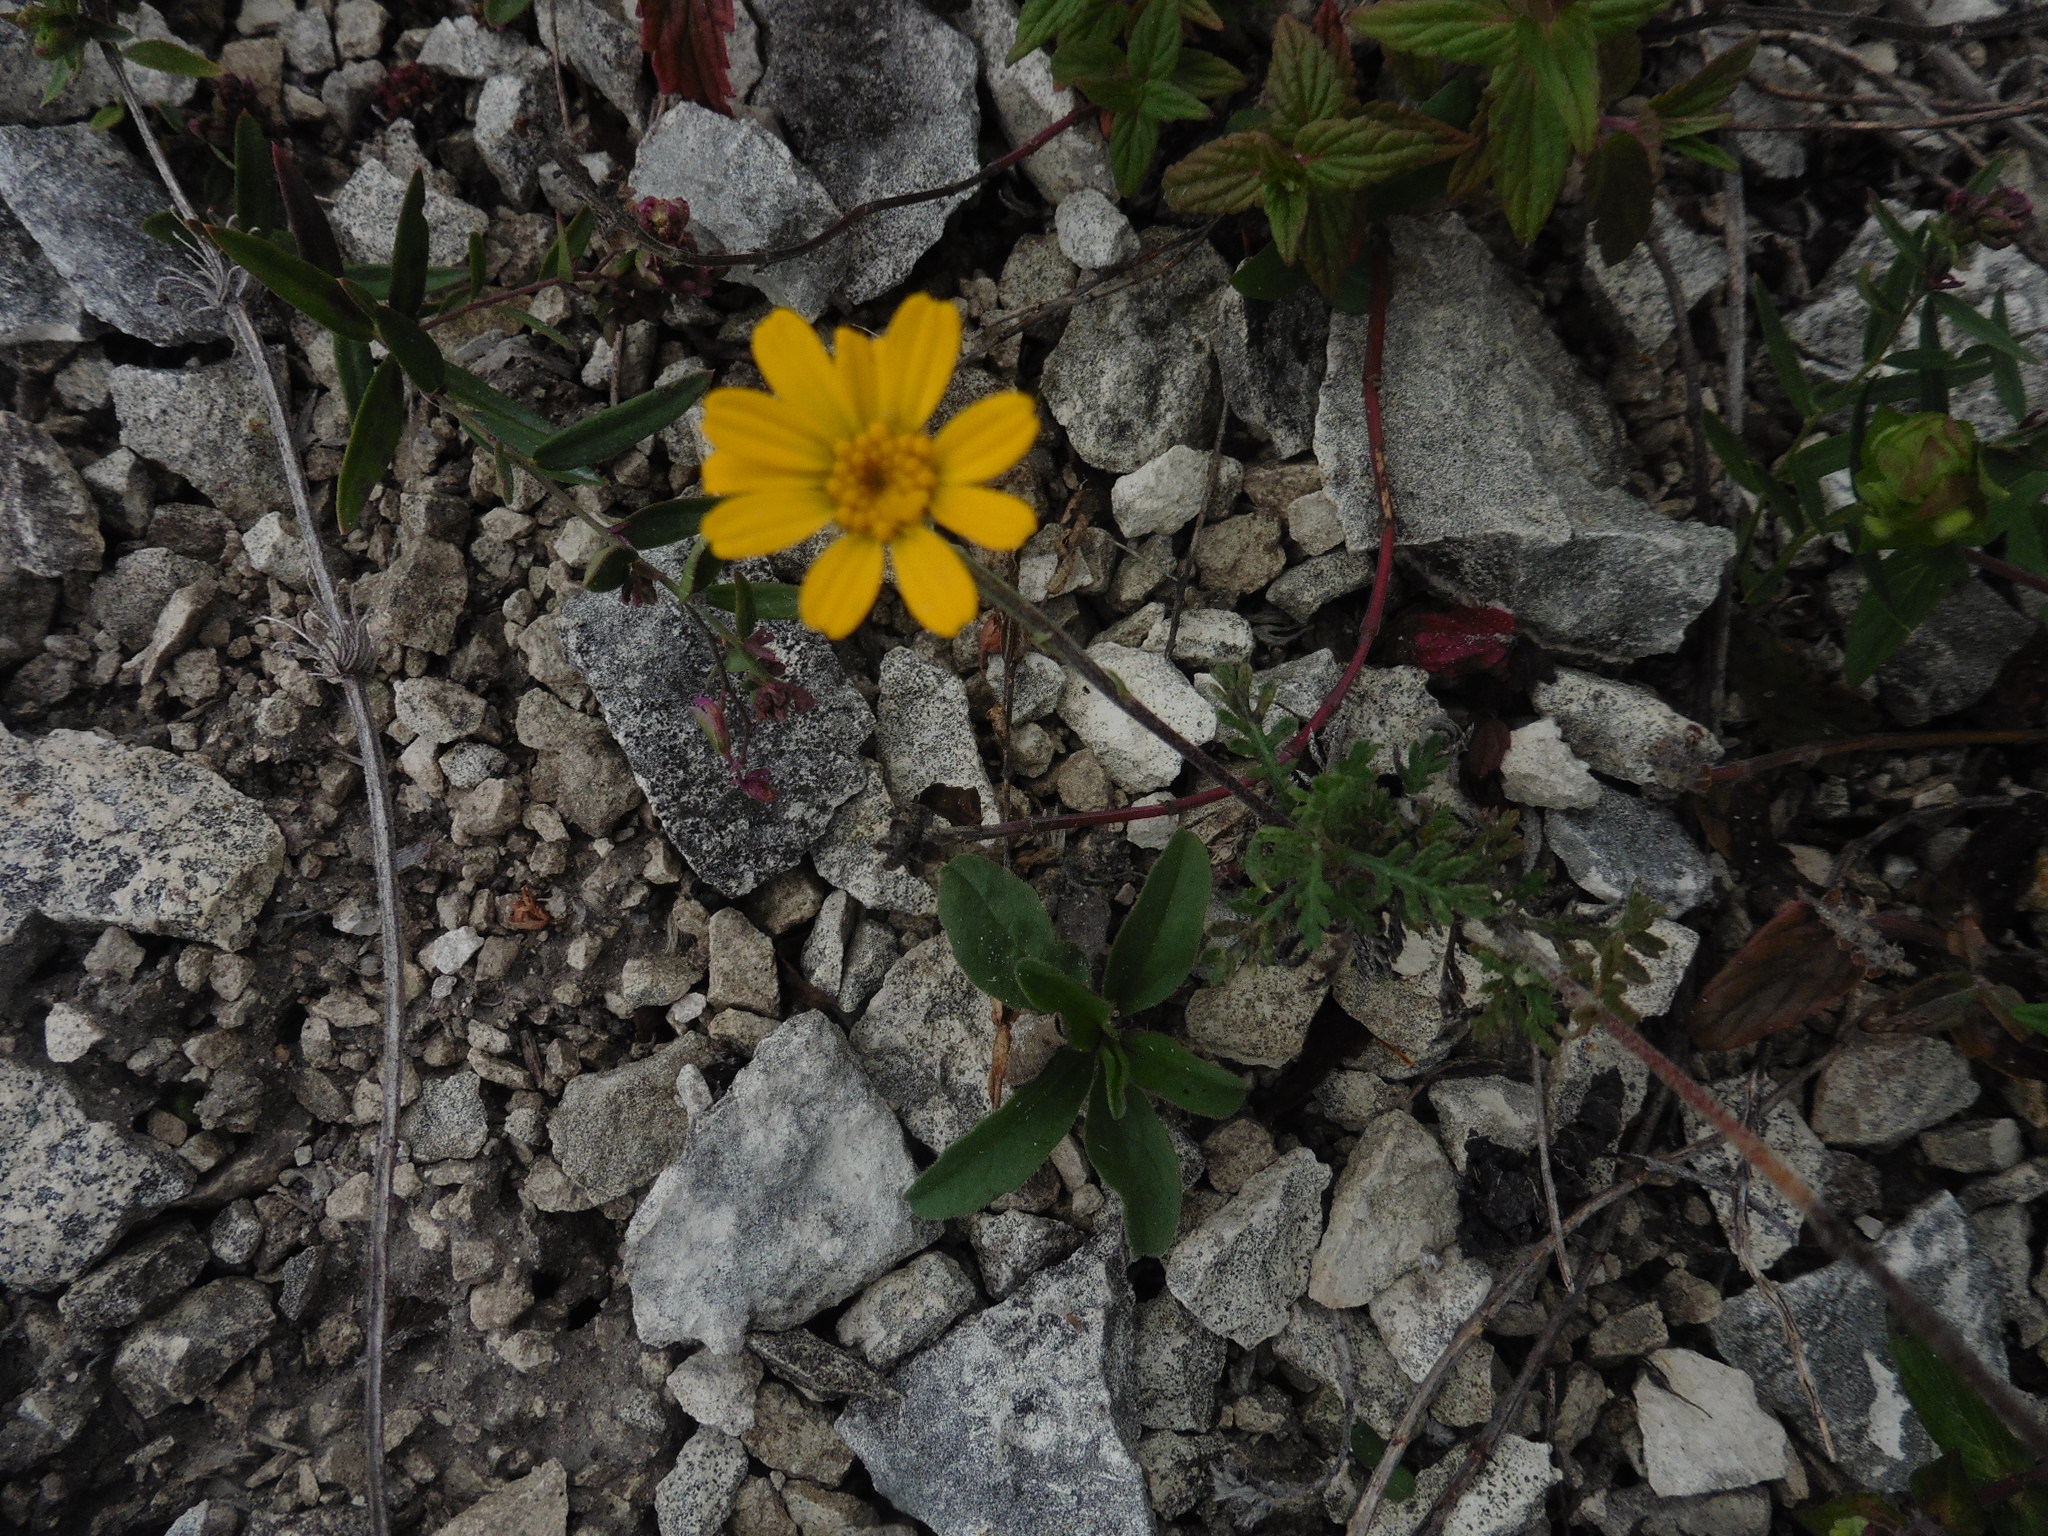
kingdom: Plantae
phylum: Tracheophyta
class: Magnoliopsida
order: Asterales
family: Asteraceae
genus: Cota
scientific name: Cota tinctoria
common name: Golden chamomile
